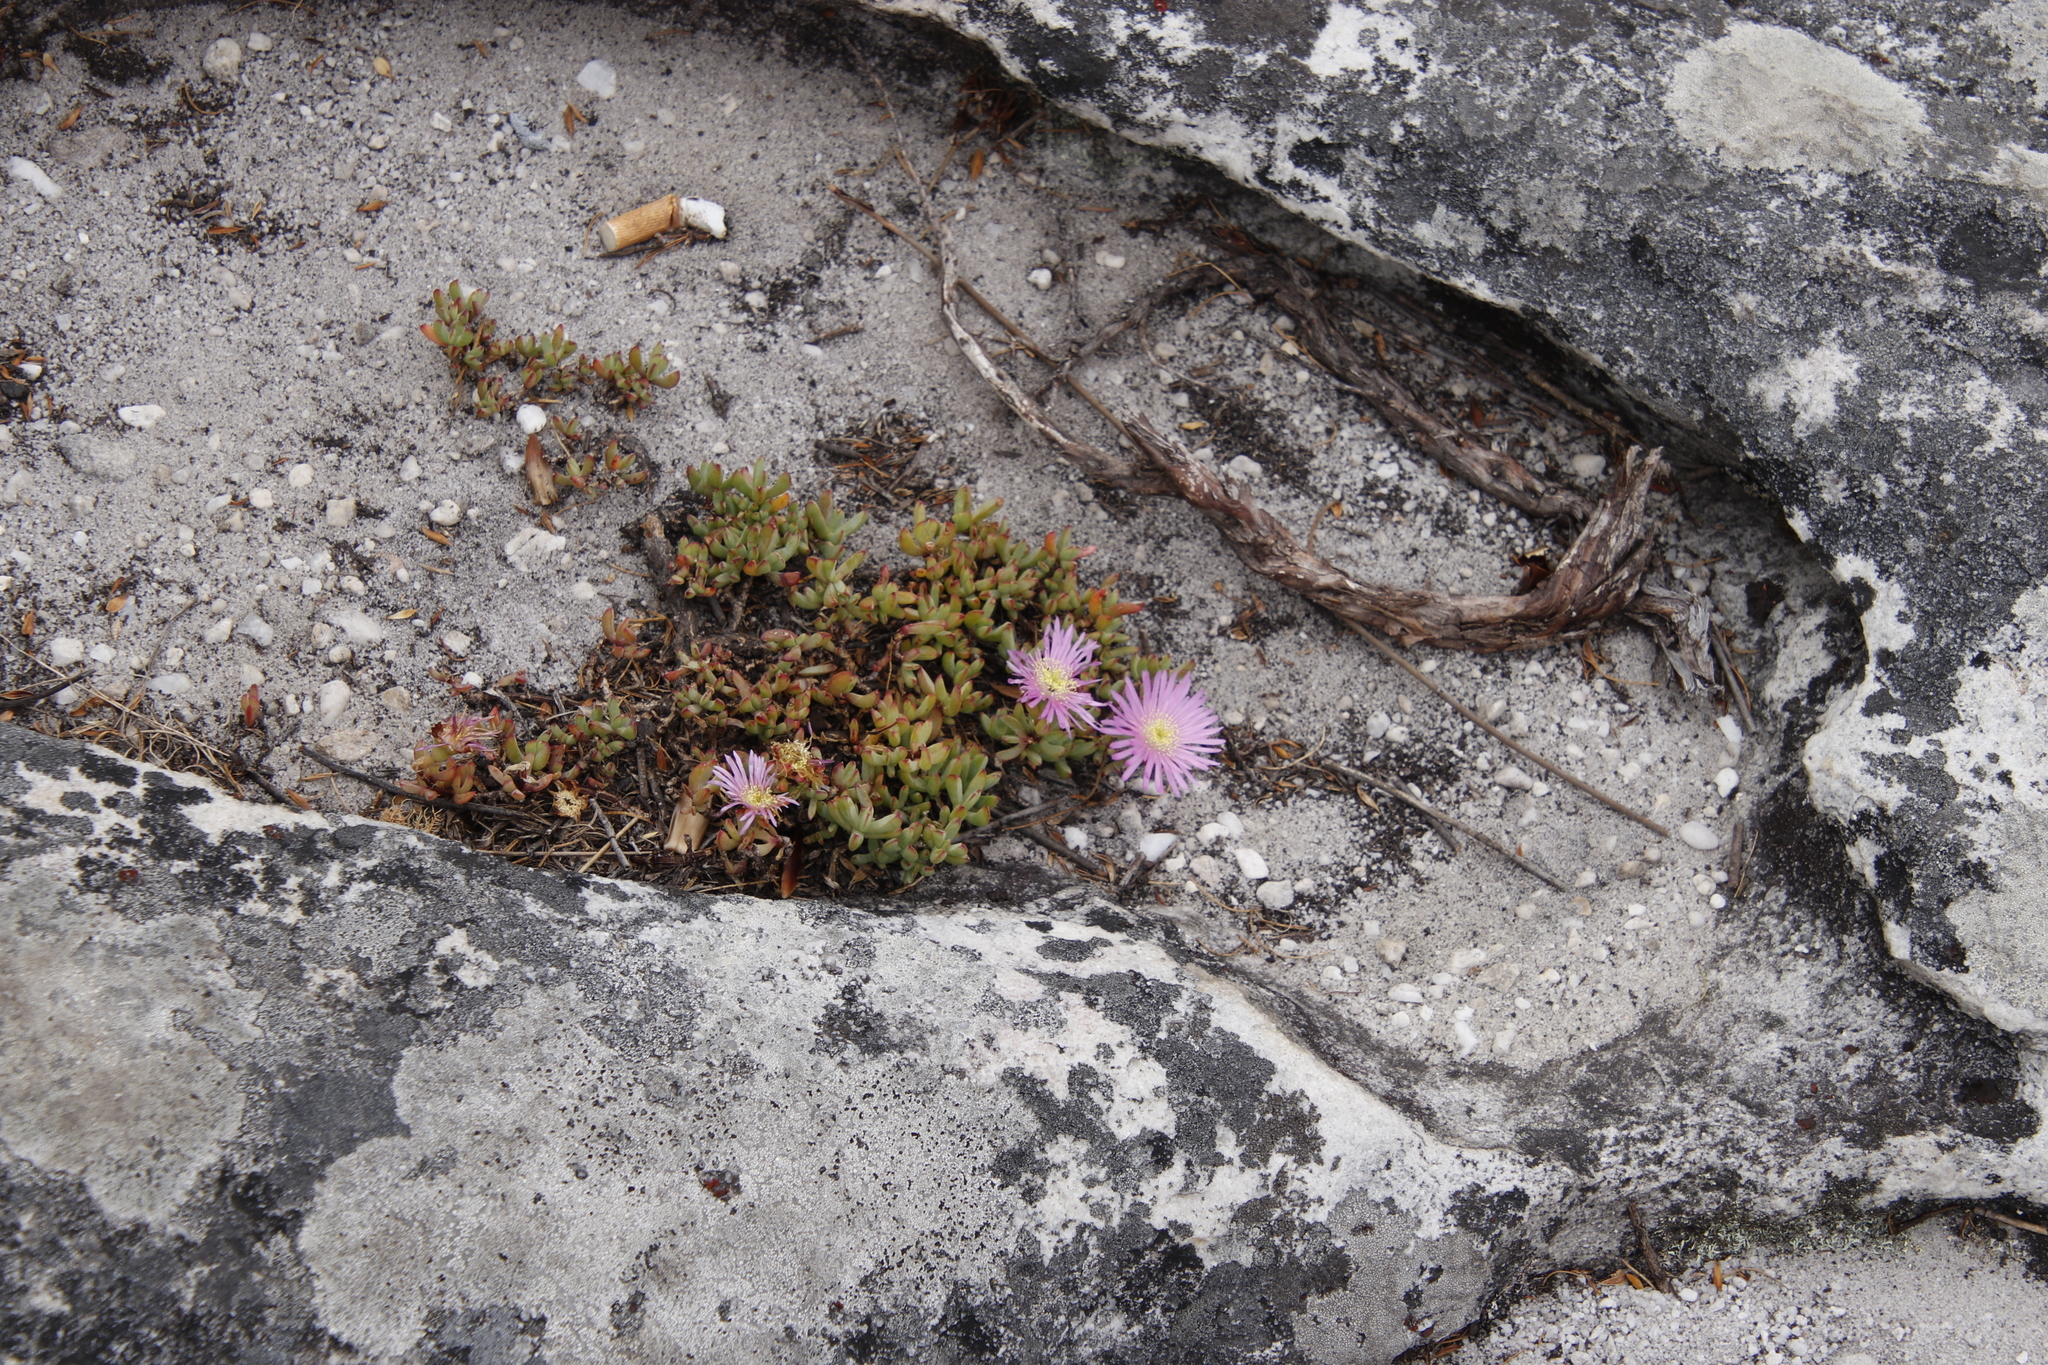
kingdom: Plantae
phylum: Tracheophyta
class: Magnoliopsida
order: Caryophyllales
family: Aizoaceae
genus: Oscularia
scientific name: Oscularia falciformis
